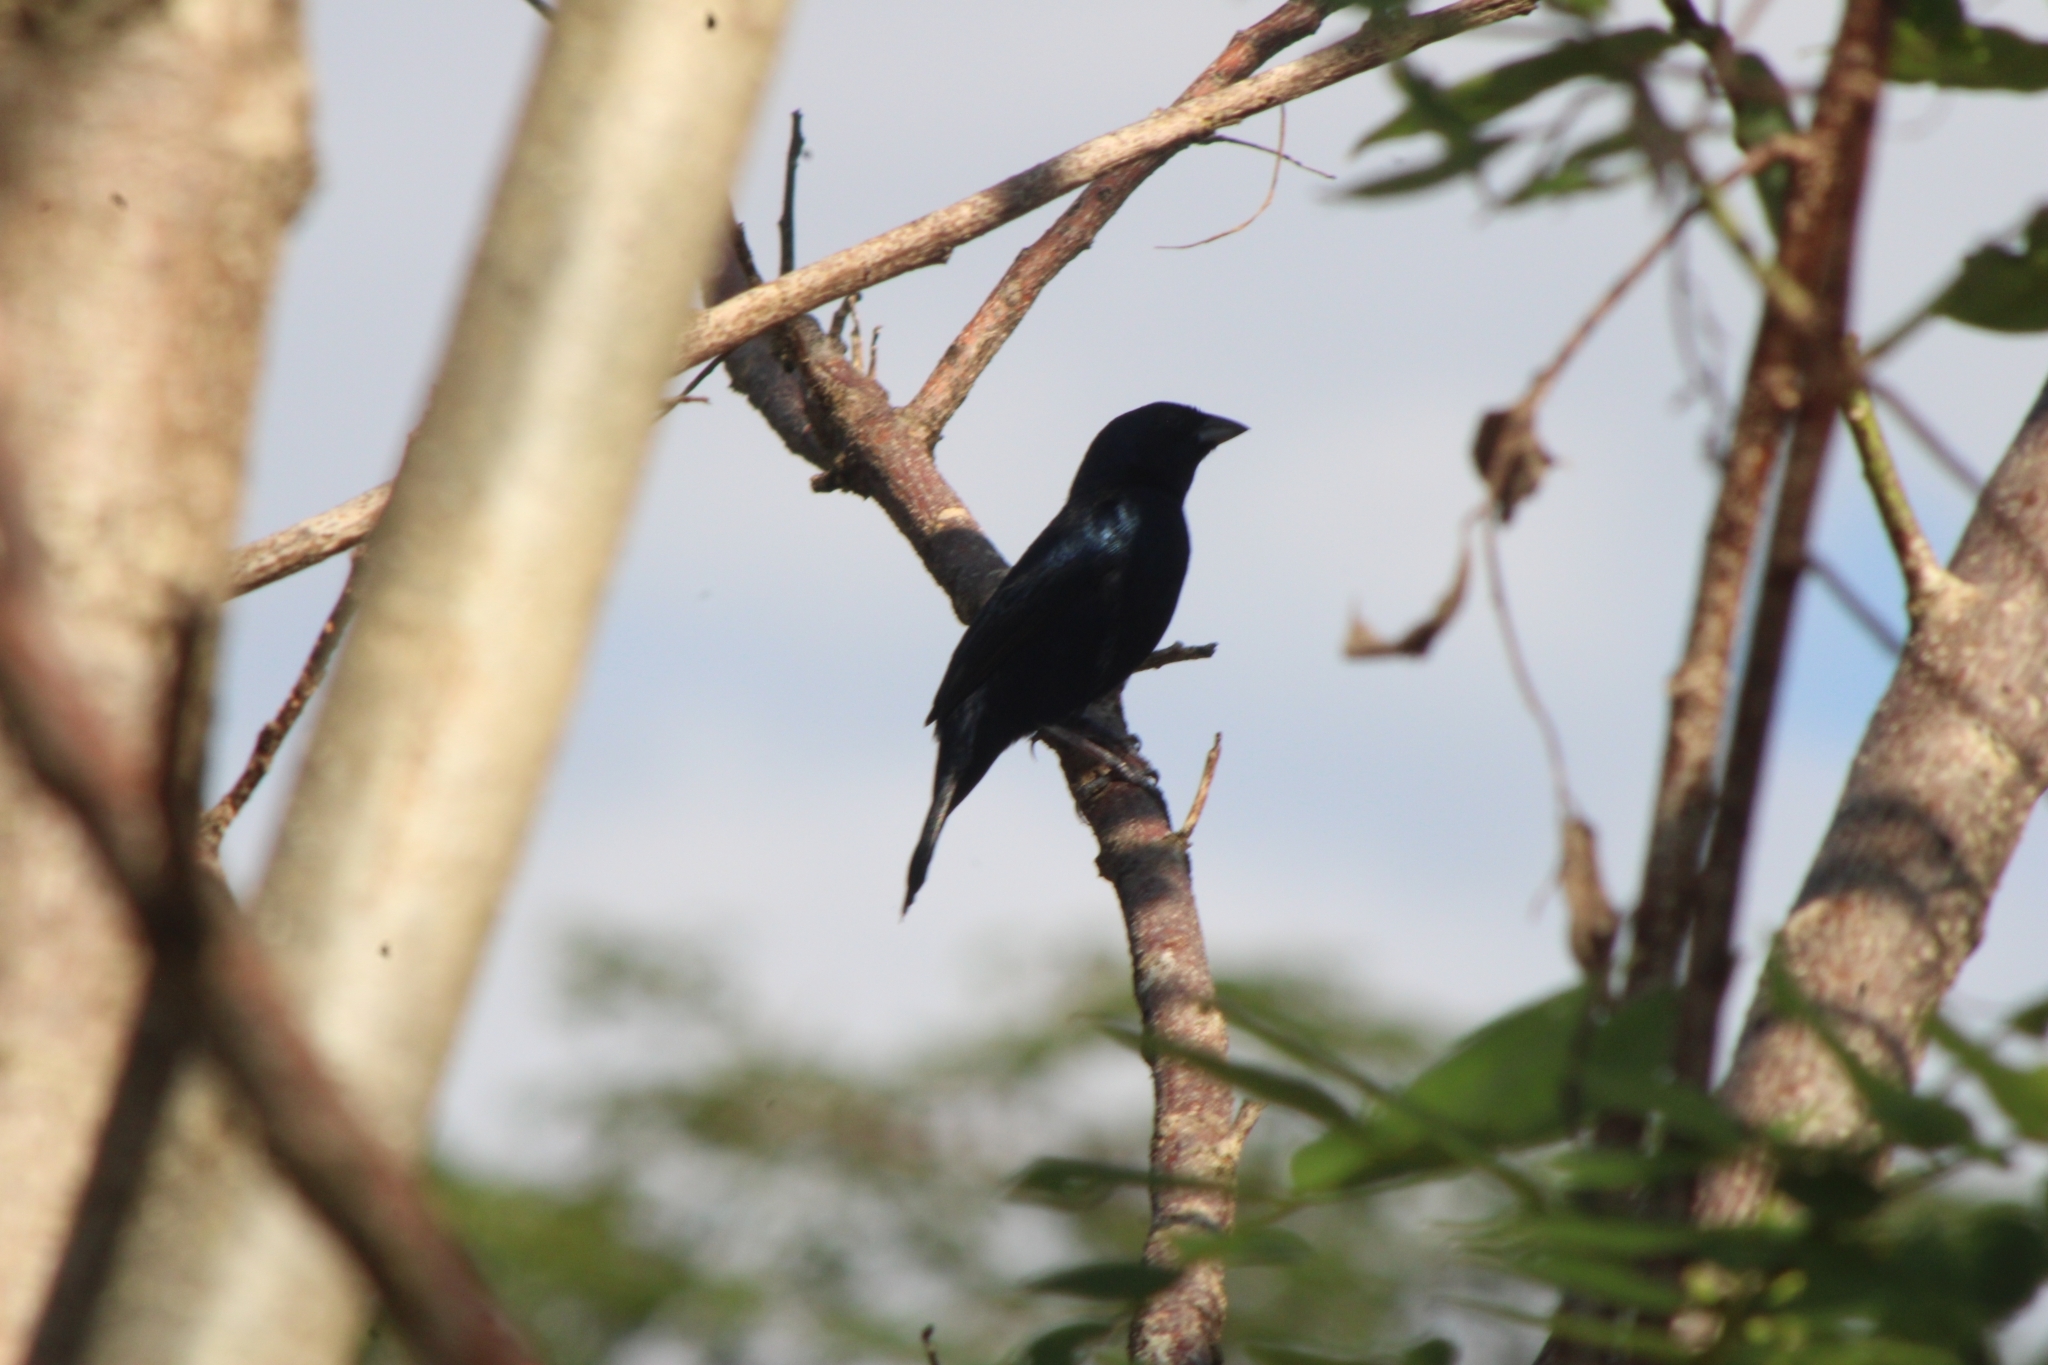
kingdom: Animalia
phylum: Chordata
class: Aves
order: Passeriformes
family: Thraupidae
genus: Volatinia
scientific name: Volatinia jacarina
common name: Blue-black grassquit
